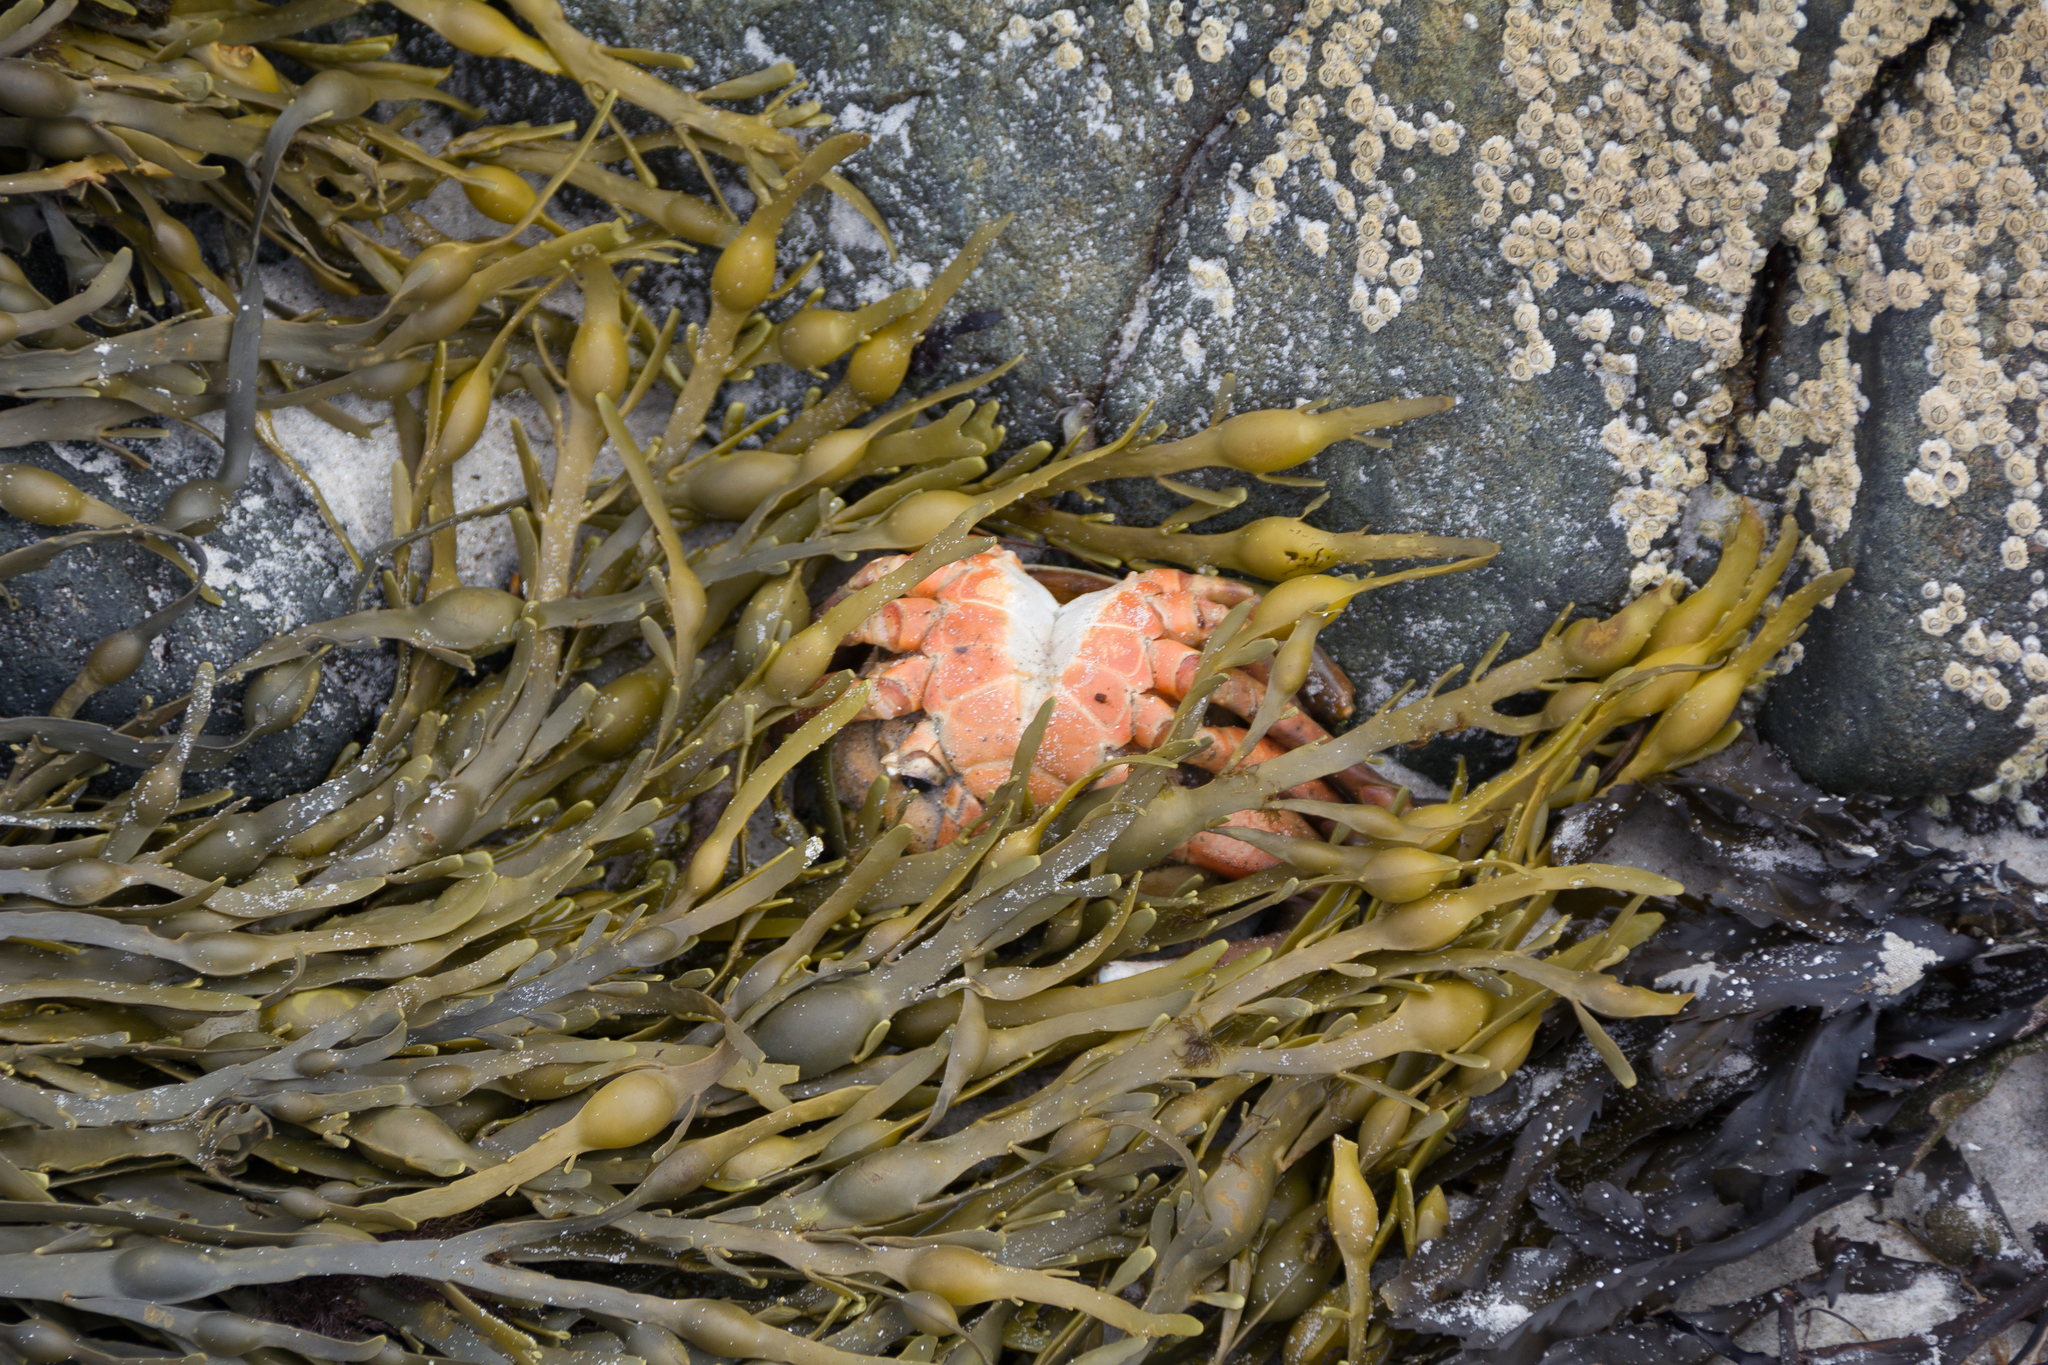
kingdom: Animalia
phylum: Arthropoda
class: Malacostraca
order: Decapoda
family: Carcinidae
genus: Carcinus
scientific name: Carcinus maenas
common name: European green crab
